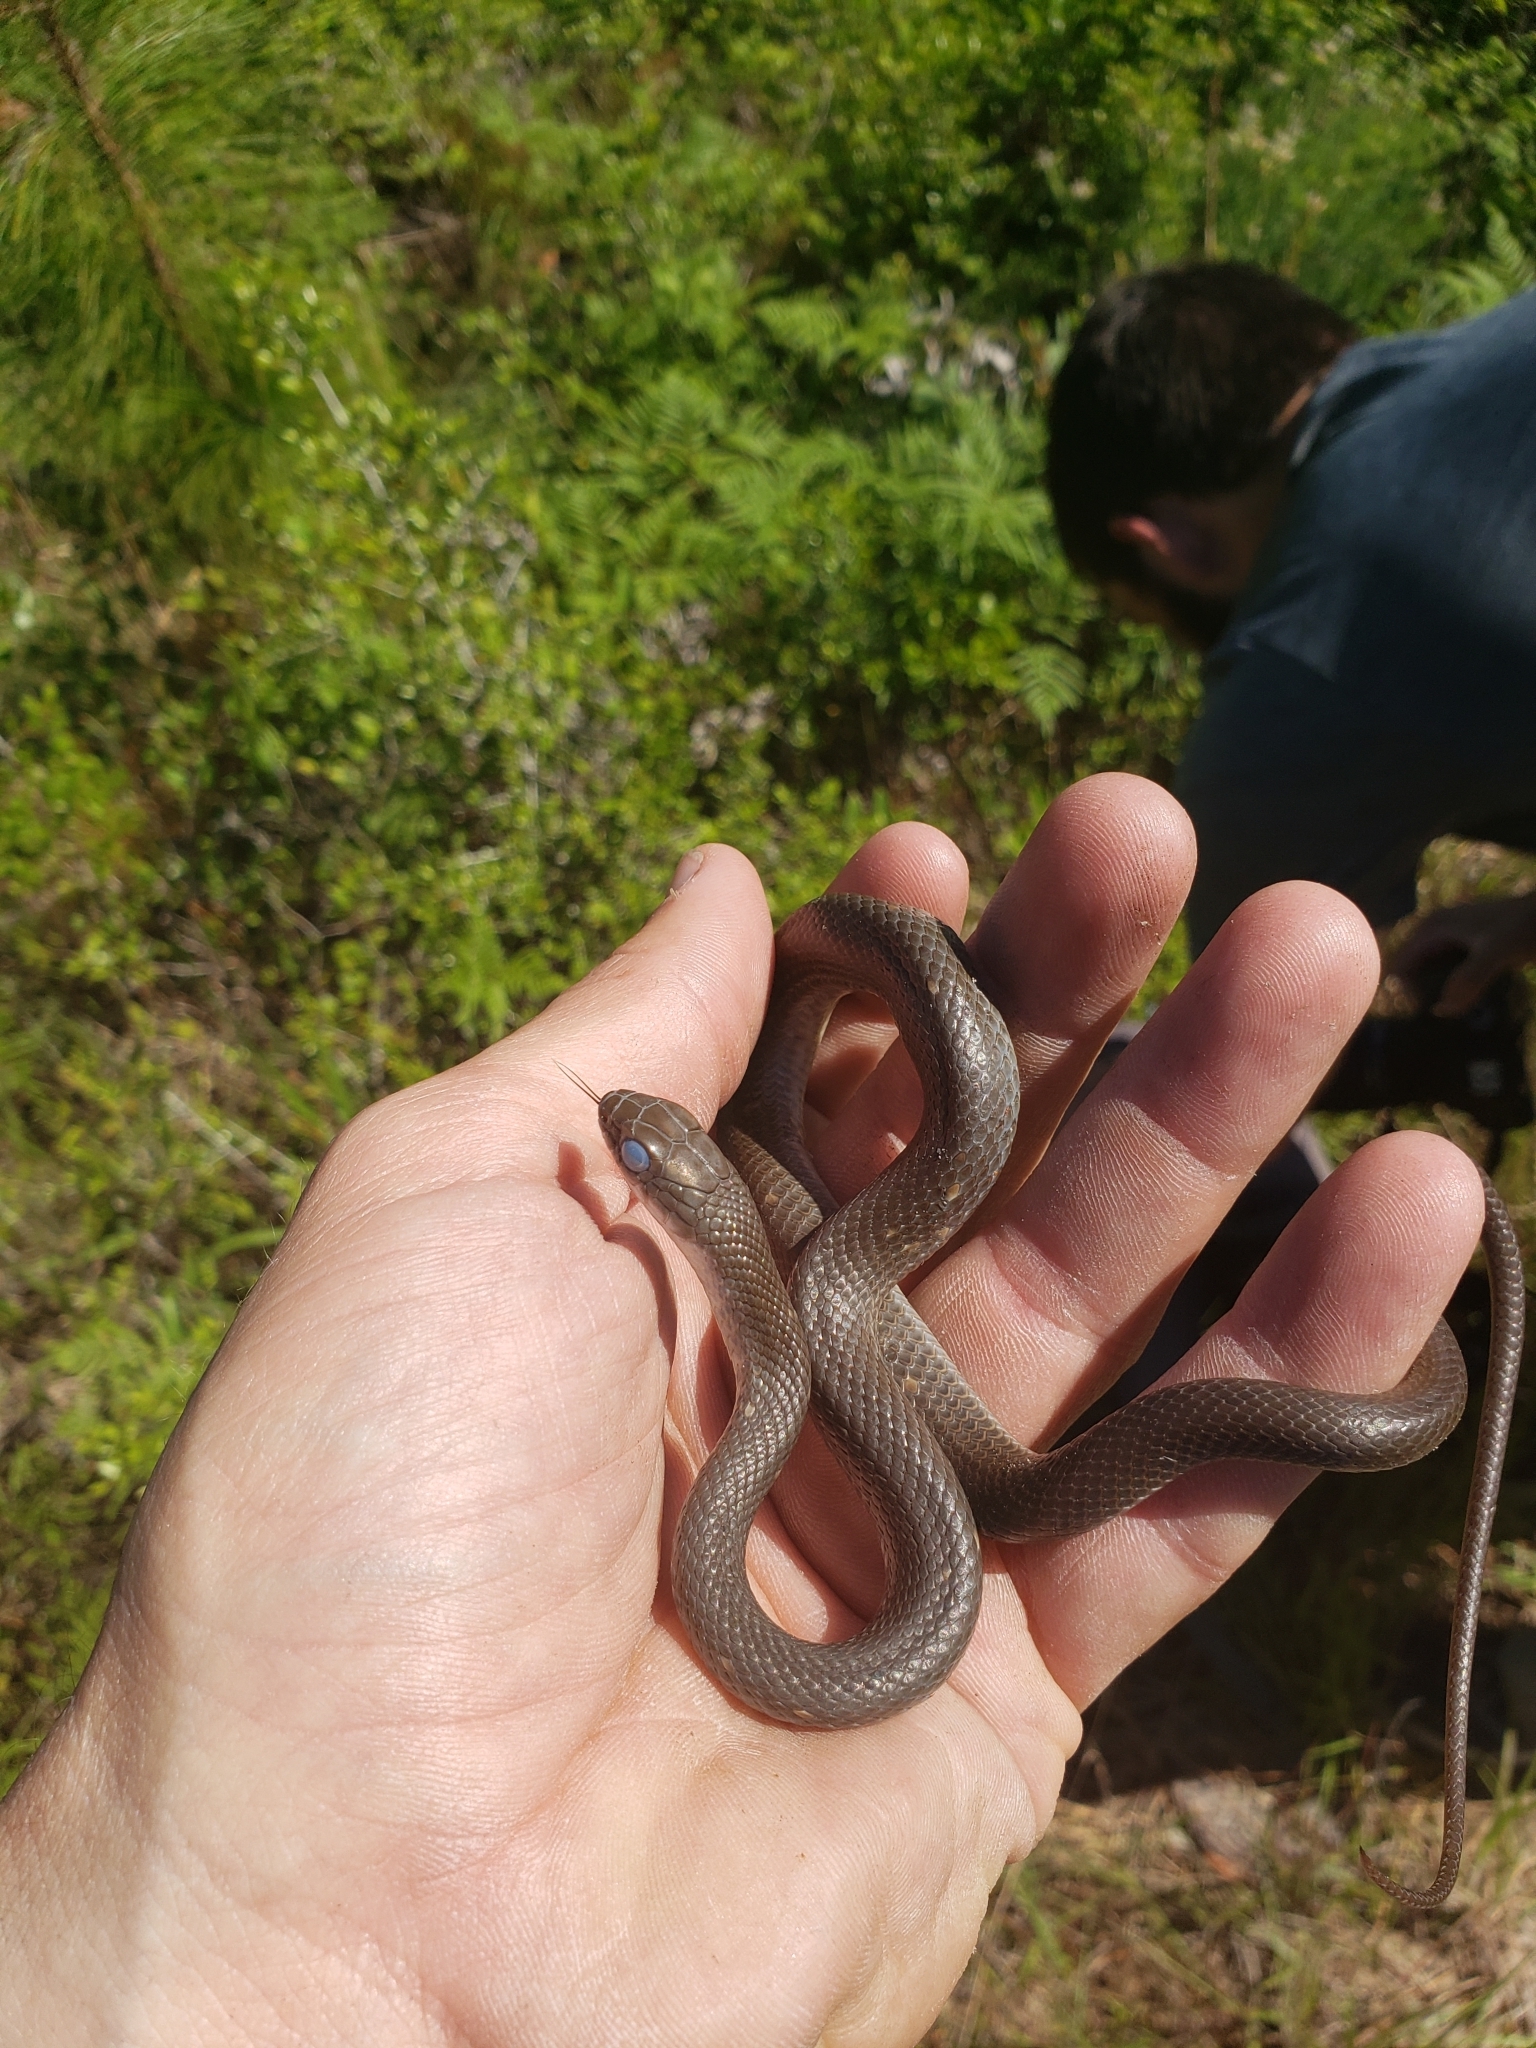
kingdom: Animalia
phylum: Chordata
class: Squamata
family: Colubridae
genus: Coluber
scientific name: Coluber constrictor
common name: Eastern racer
